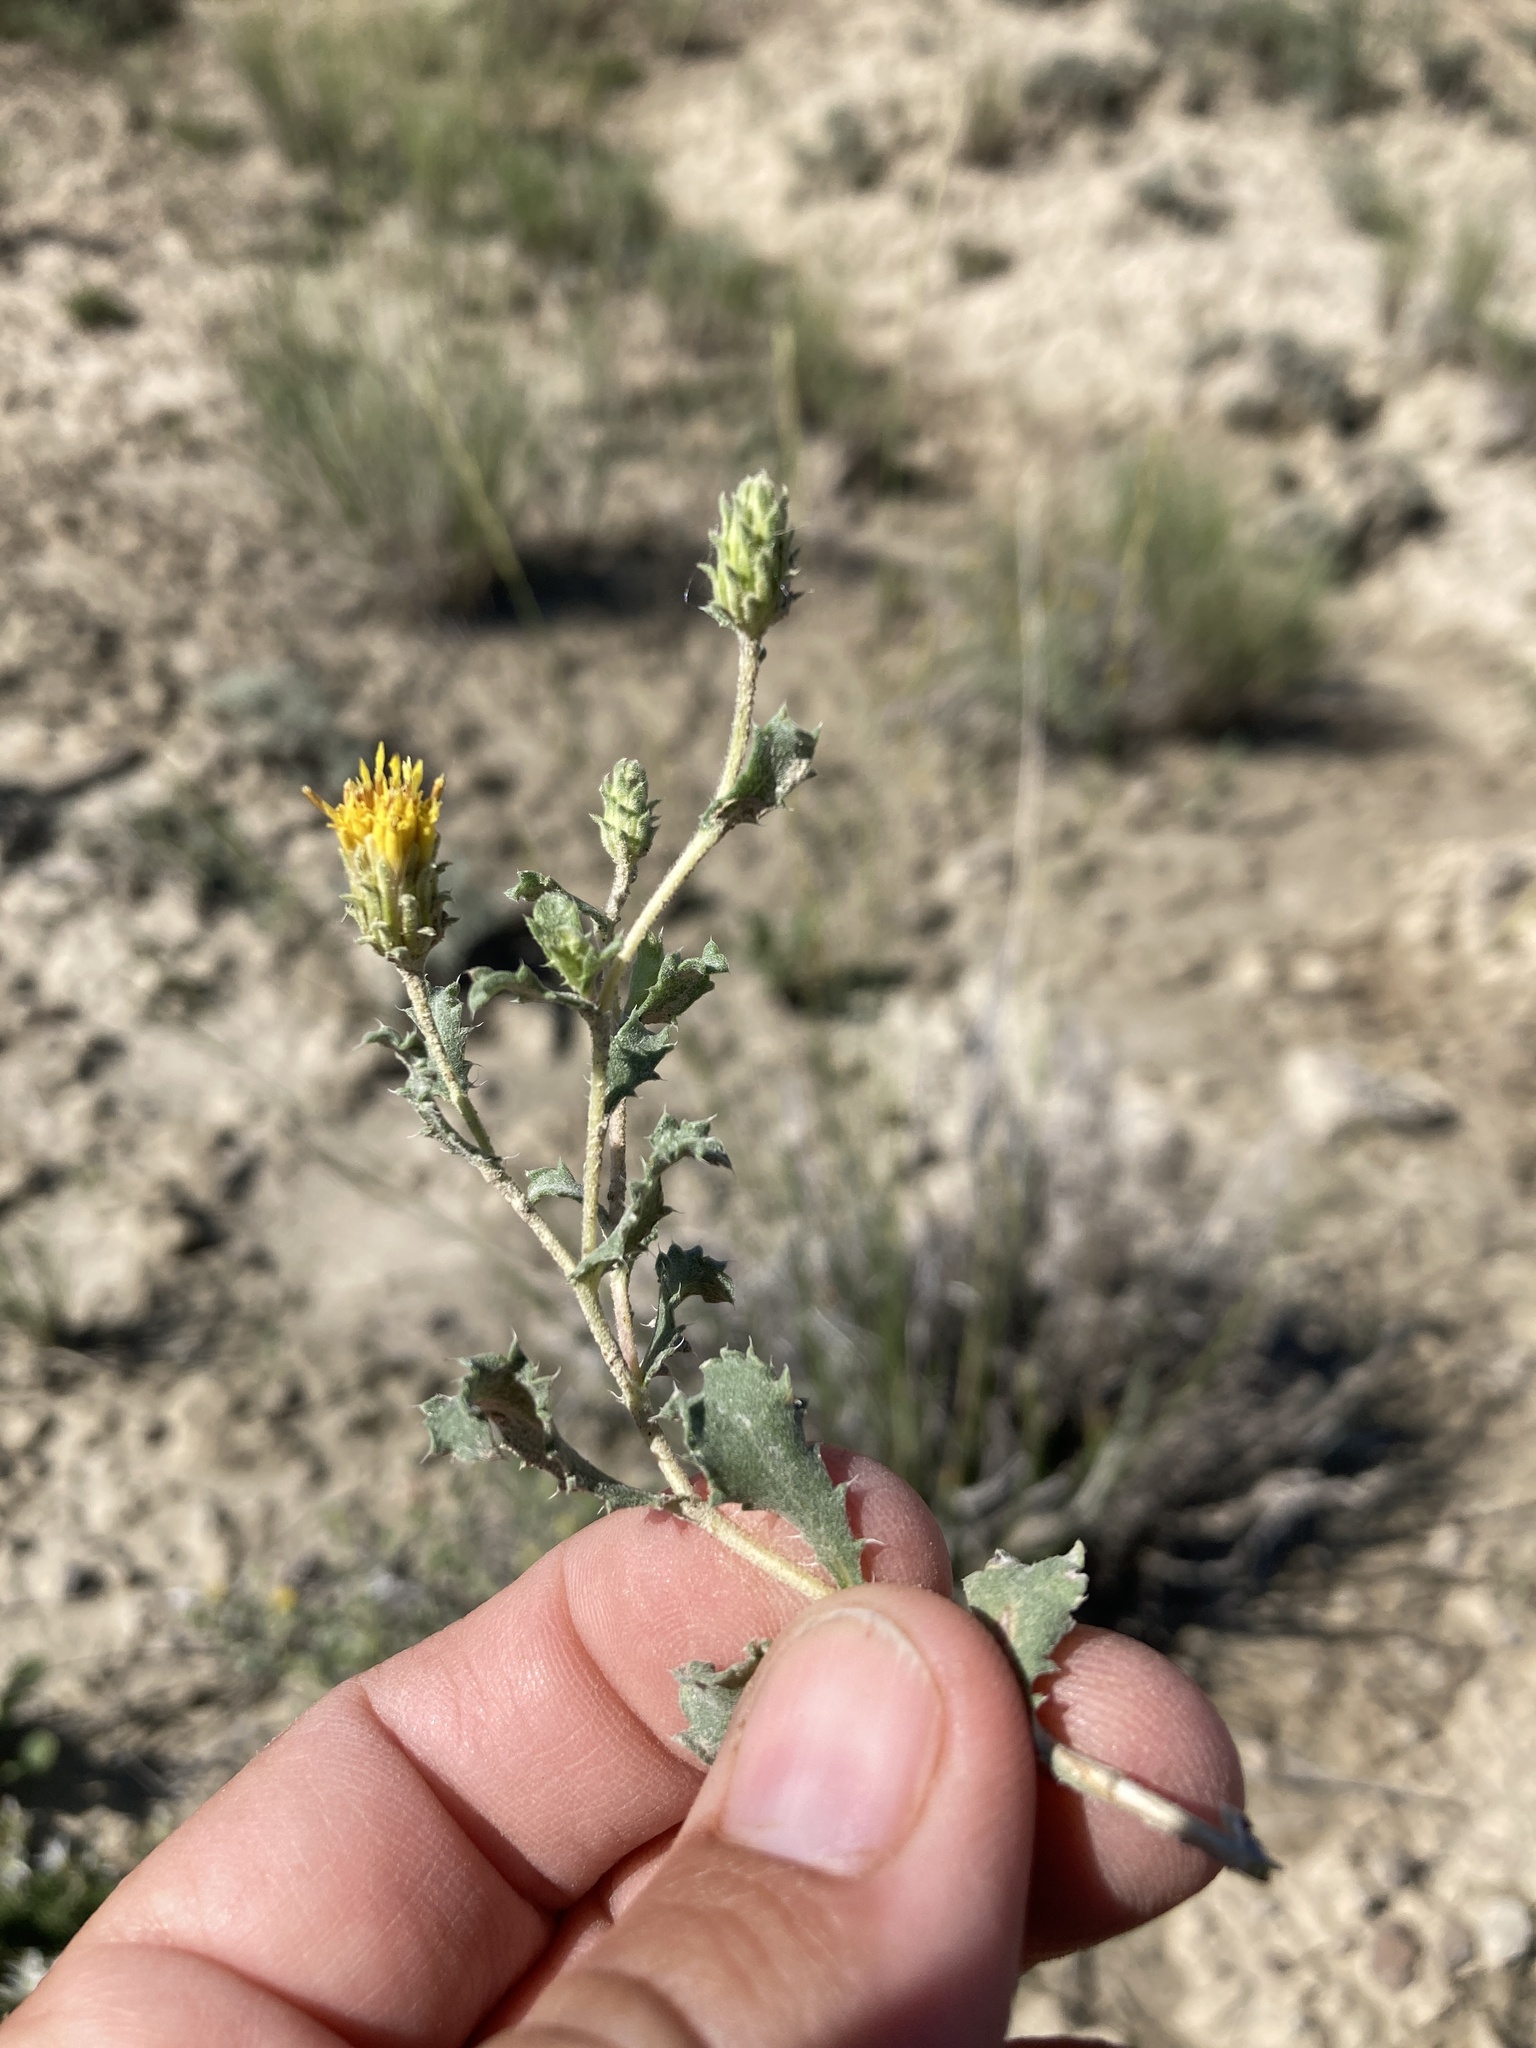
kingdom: Plantae
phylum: Tracheophyta
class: Magnoliopsida
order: Asterales
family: Asteraceae
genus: Xanthisma
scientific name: Xanthisma grindelioides
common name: Goldenweed
